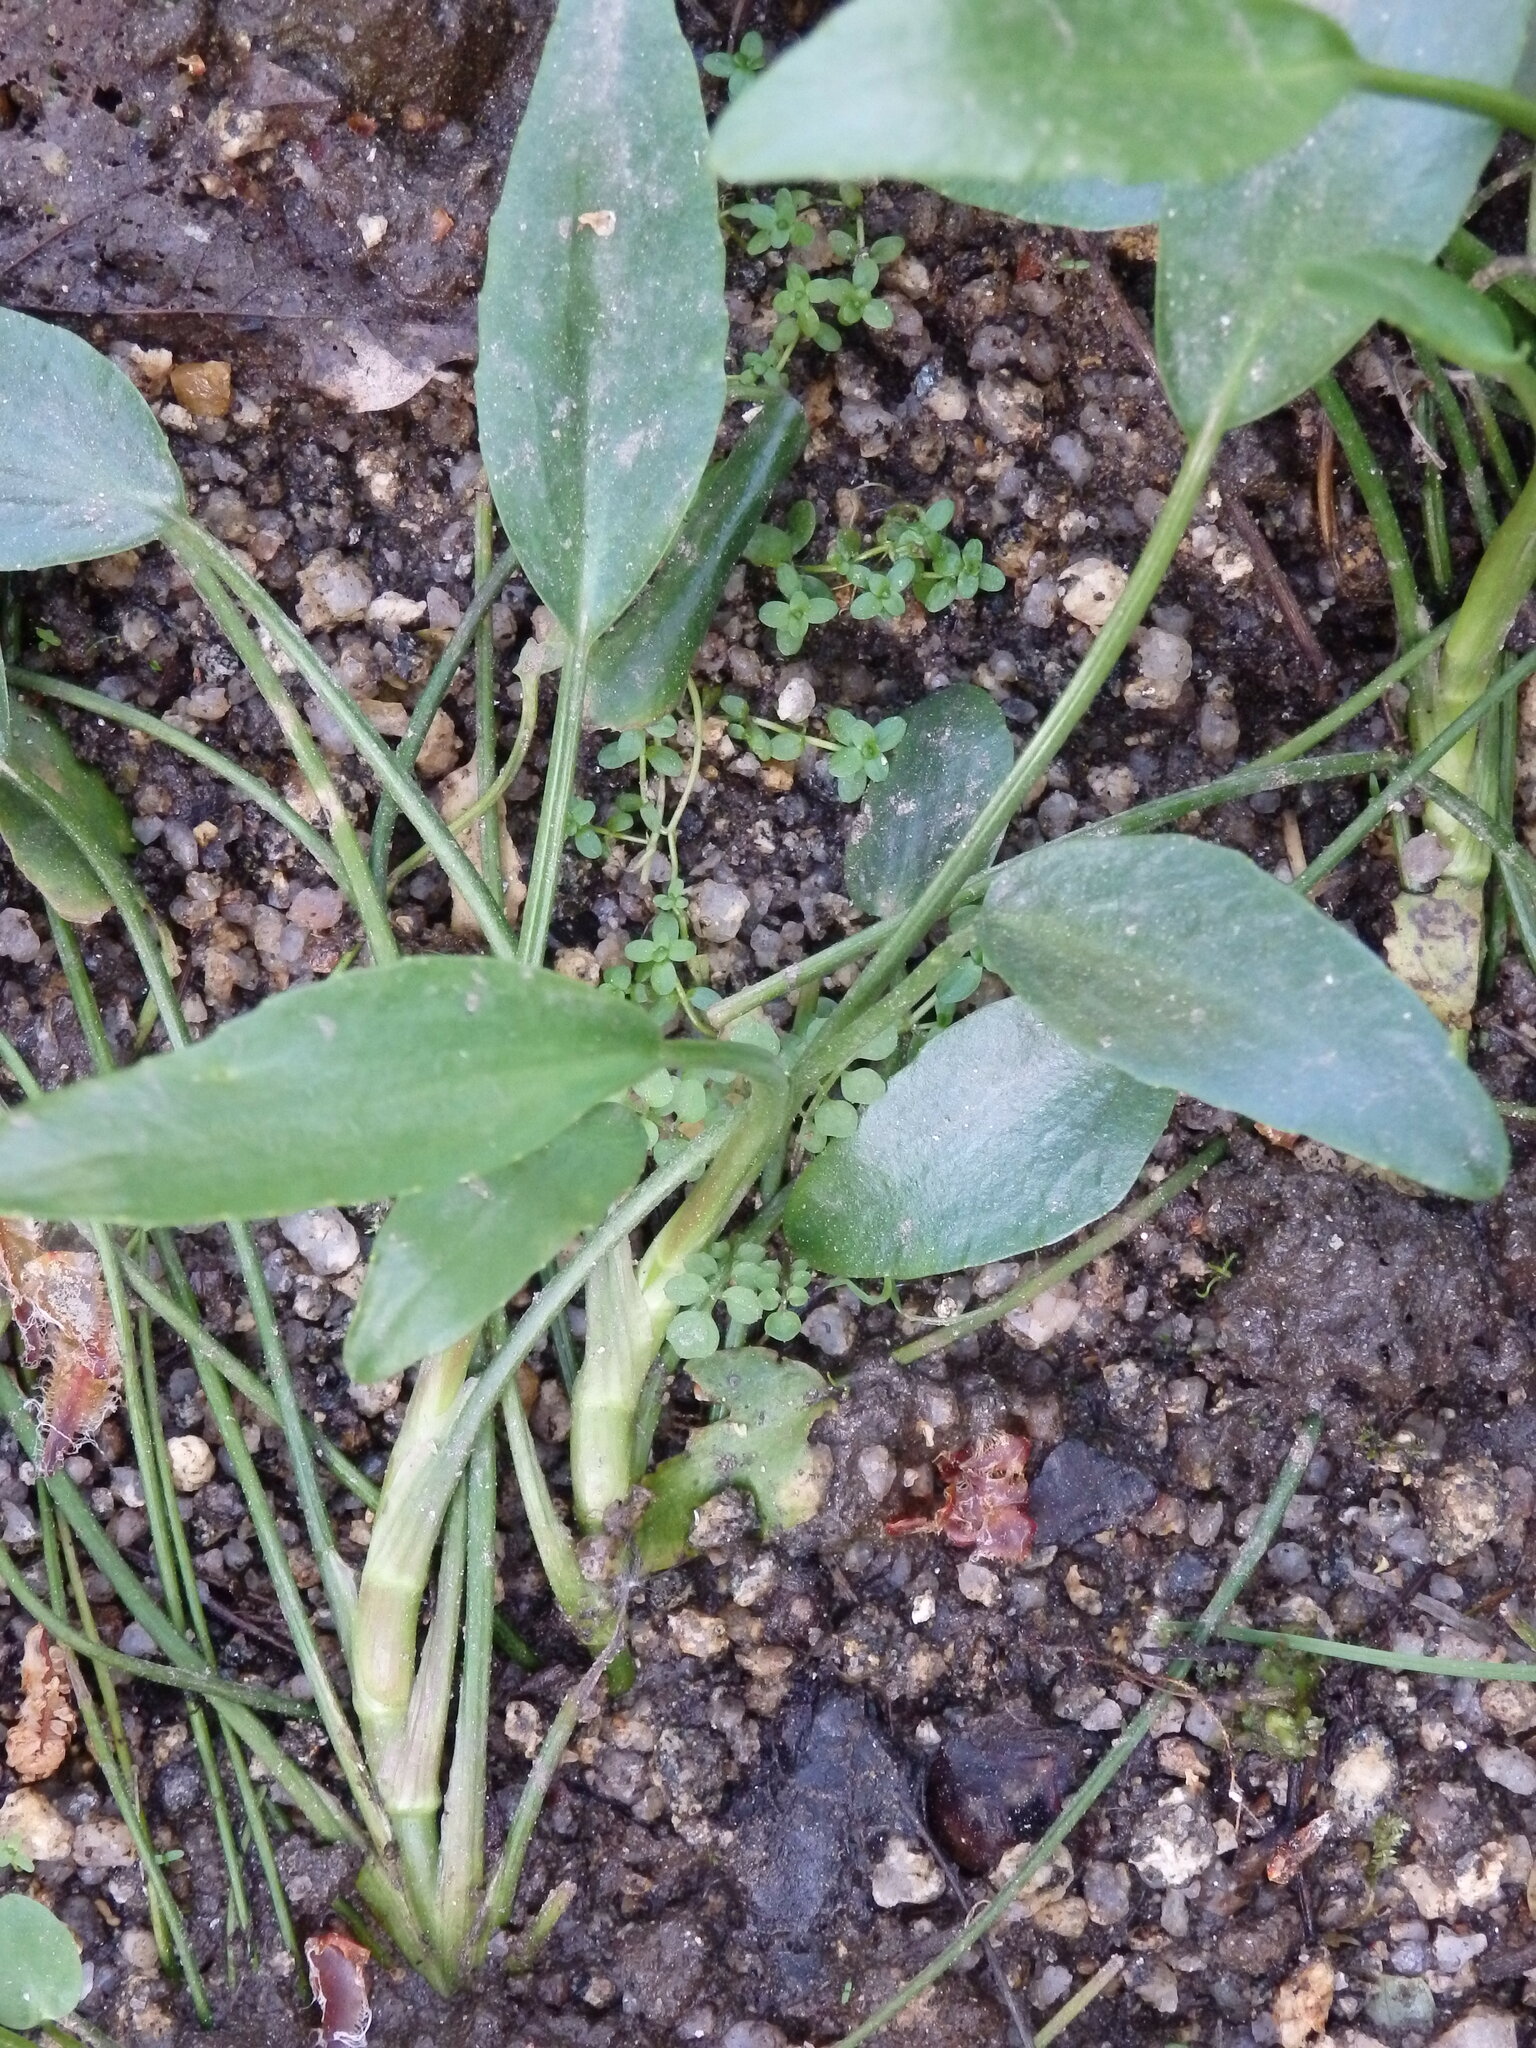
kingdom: Plantae
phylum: Tracheophyta
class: Magnoliopsida
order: Ranunculales
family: Ranunculaceae
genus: Ranunculus
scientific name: Ranunculus flammula
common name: Lesser spearwort
